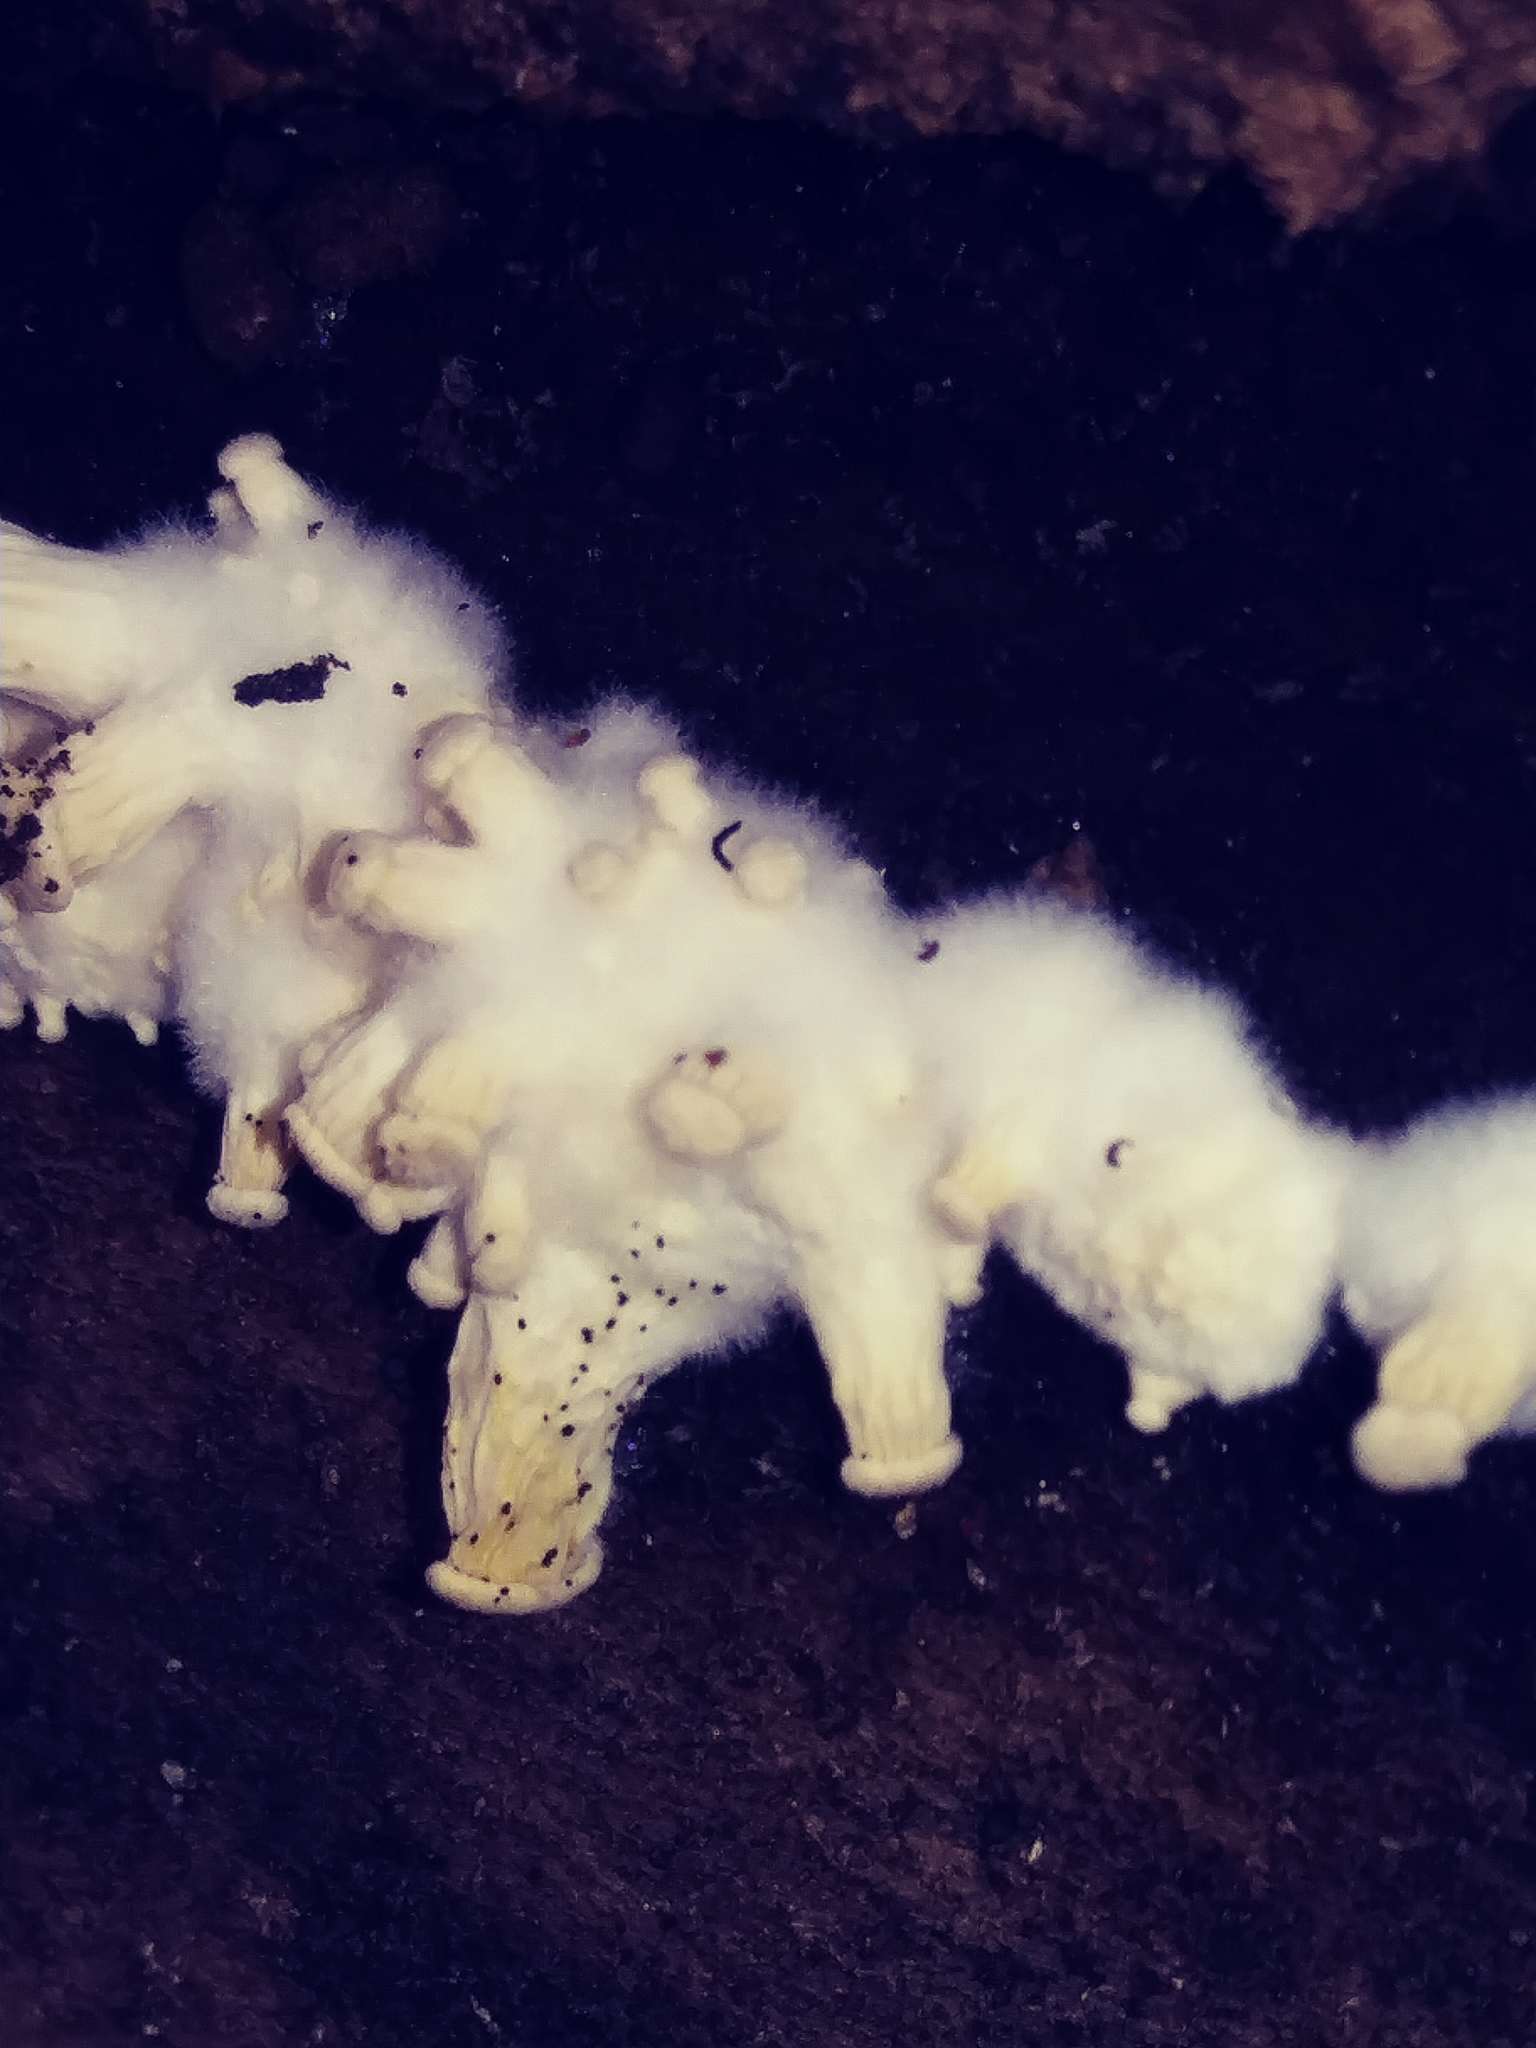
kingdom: Fungi
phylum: Basidiomycota
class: Agaricomycetes
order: Agaricales
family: Pleurotaceae
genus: Pleurotus
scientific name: Pleurotus ostreatus
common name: Oyster mushroom
